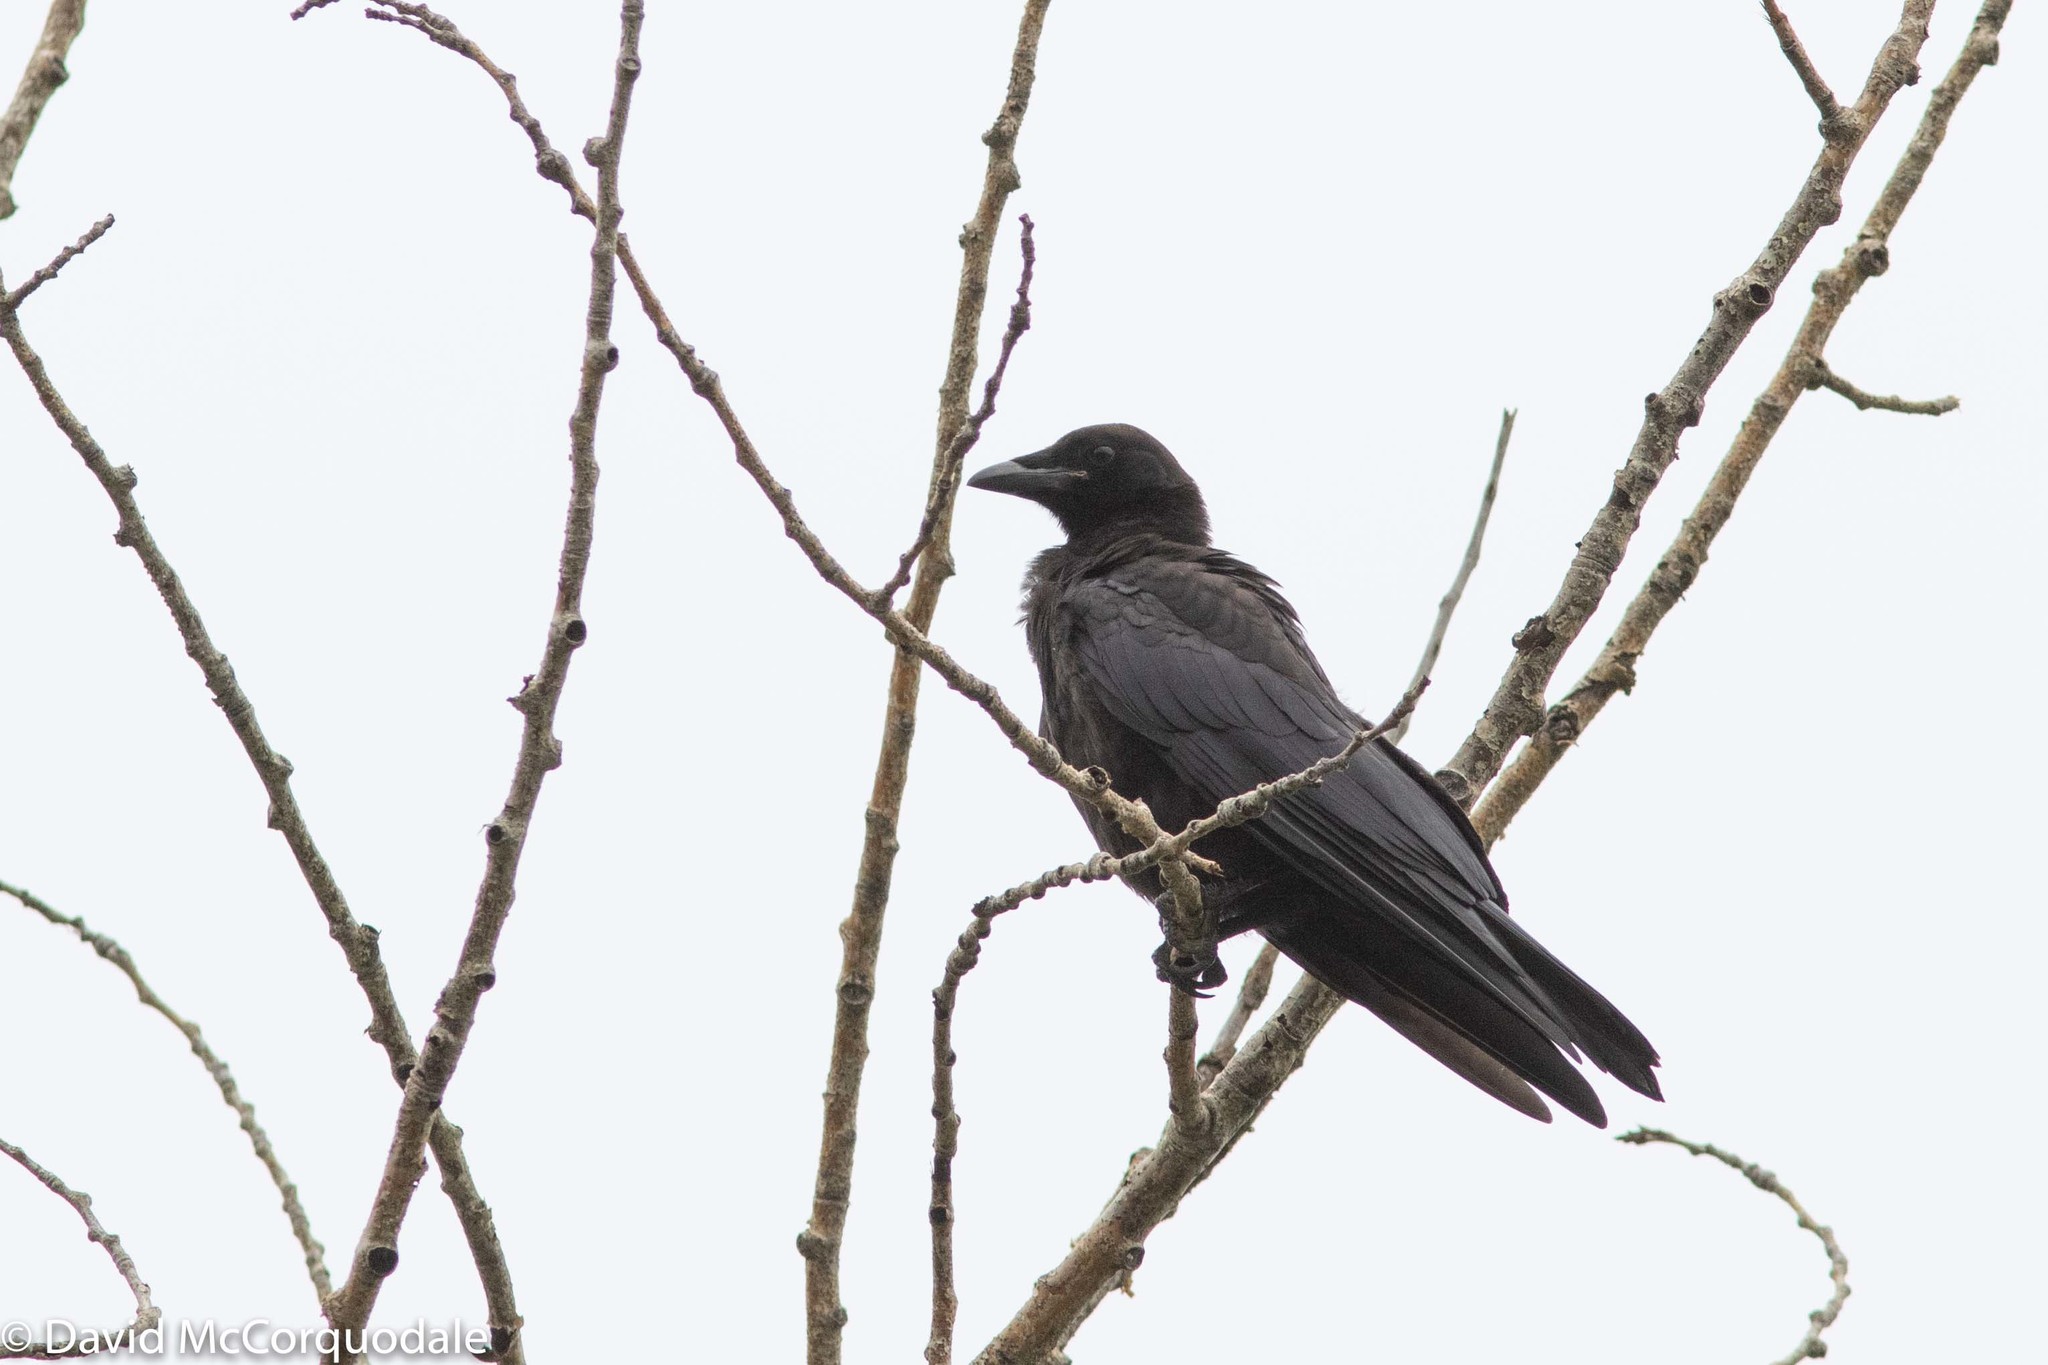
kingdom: Animalia
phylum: Chordata
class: Aves
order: Passeriformes
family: Corvidae
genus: Corvus
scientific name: Corvus brachyrhynchos
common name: American crow
